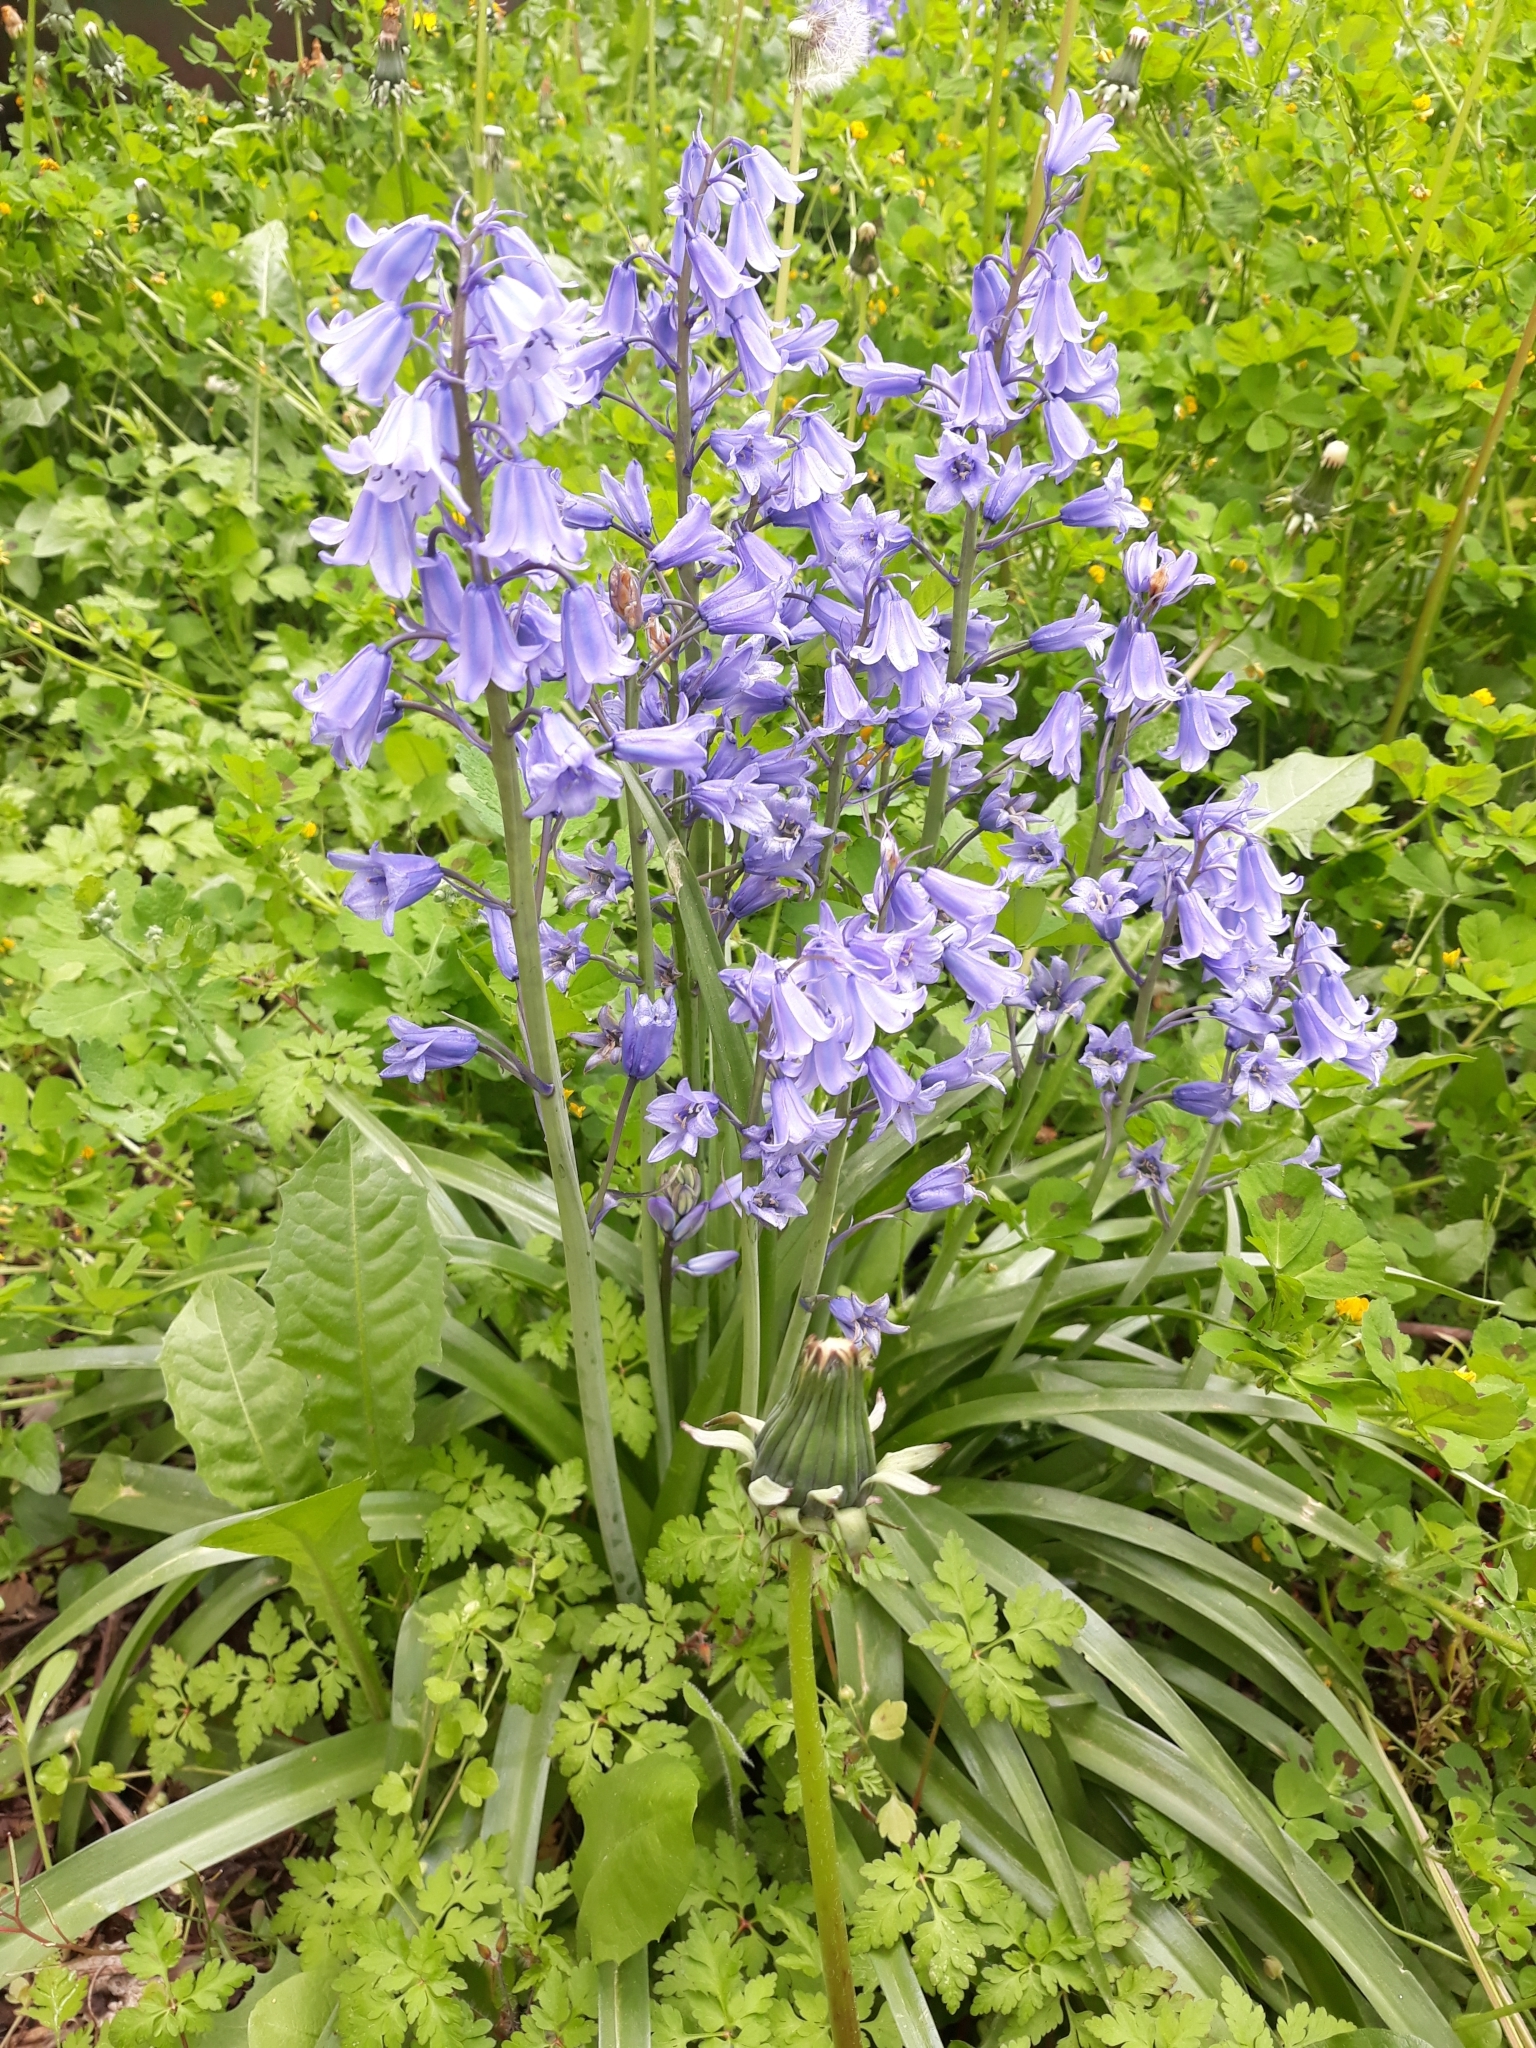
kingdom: Plantae
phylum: Tracheophyta
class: Liliopsida
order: Asparagales
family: Asparagaceae
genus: Hyacinthoides
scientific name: Hyacinthoides hispanica
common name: Spanish bluebell
